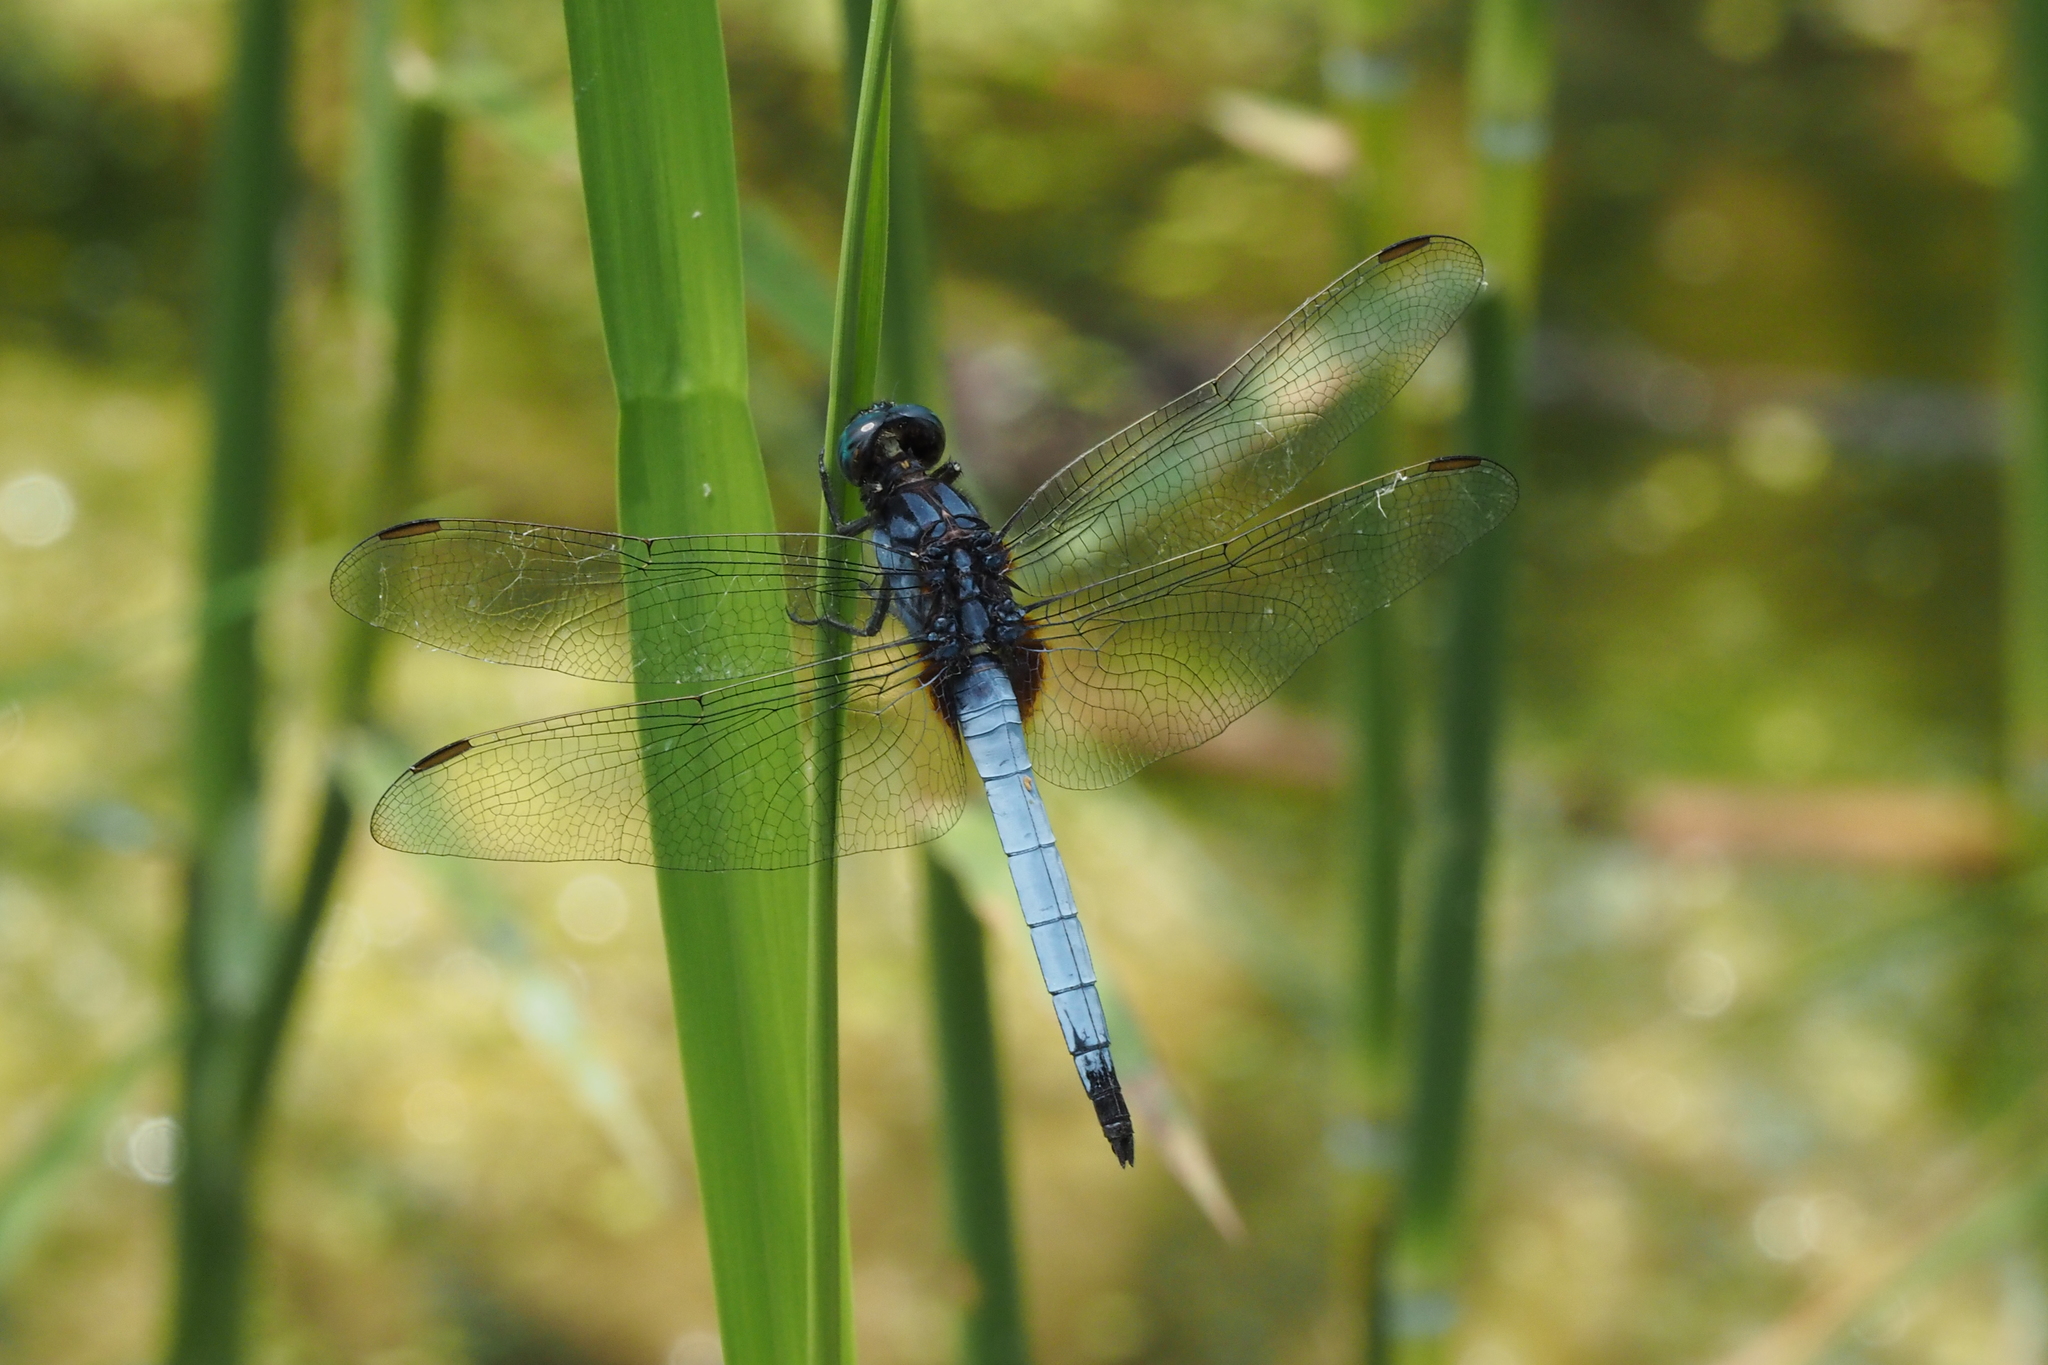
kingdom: Animalia
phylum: Arthropoda
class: Insecta
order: Odonata
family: Libellulidae
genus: Orthetrum
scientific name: Orthetrum glaucum
